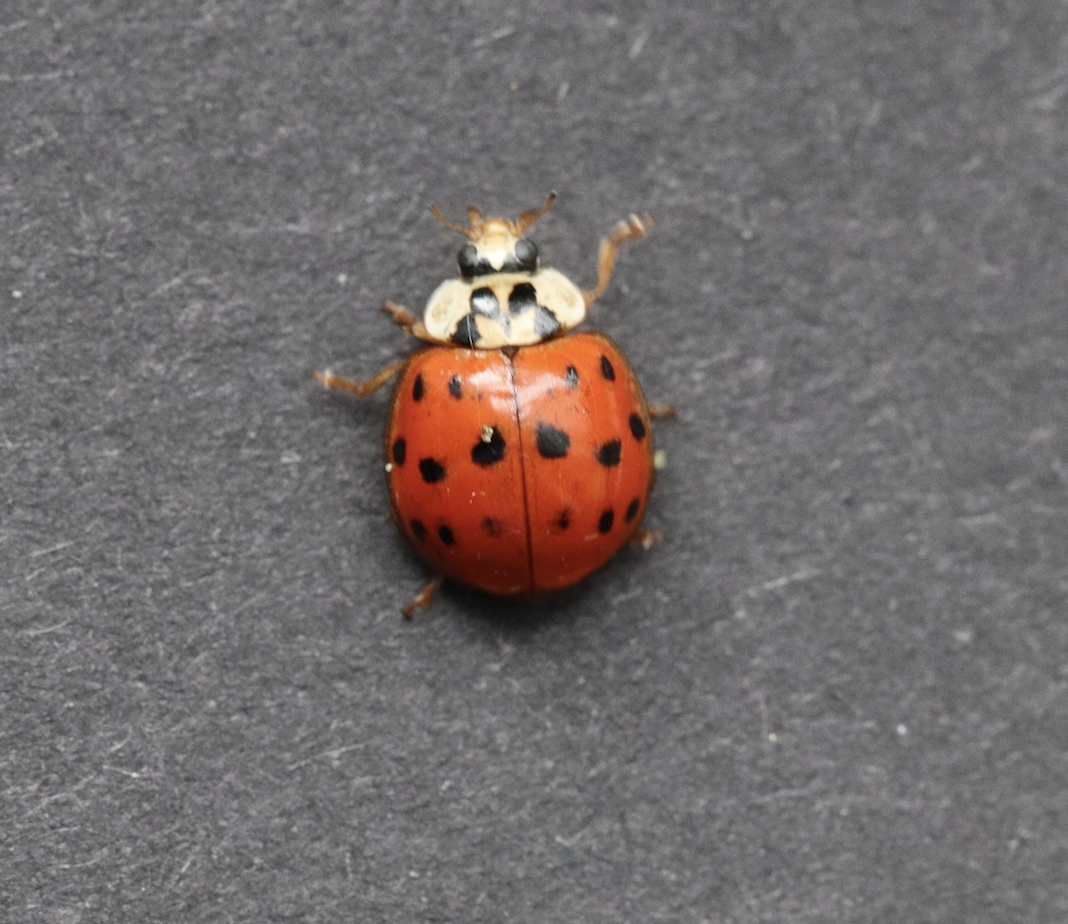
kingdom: Animalia
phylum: Arthropoda
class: Insecta
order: Coleoptera
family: Coccinellidae
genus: Harmonia
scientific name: Harmonia axyridis
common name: Harlequin ladybird
